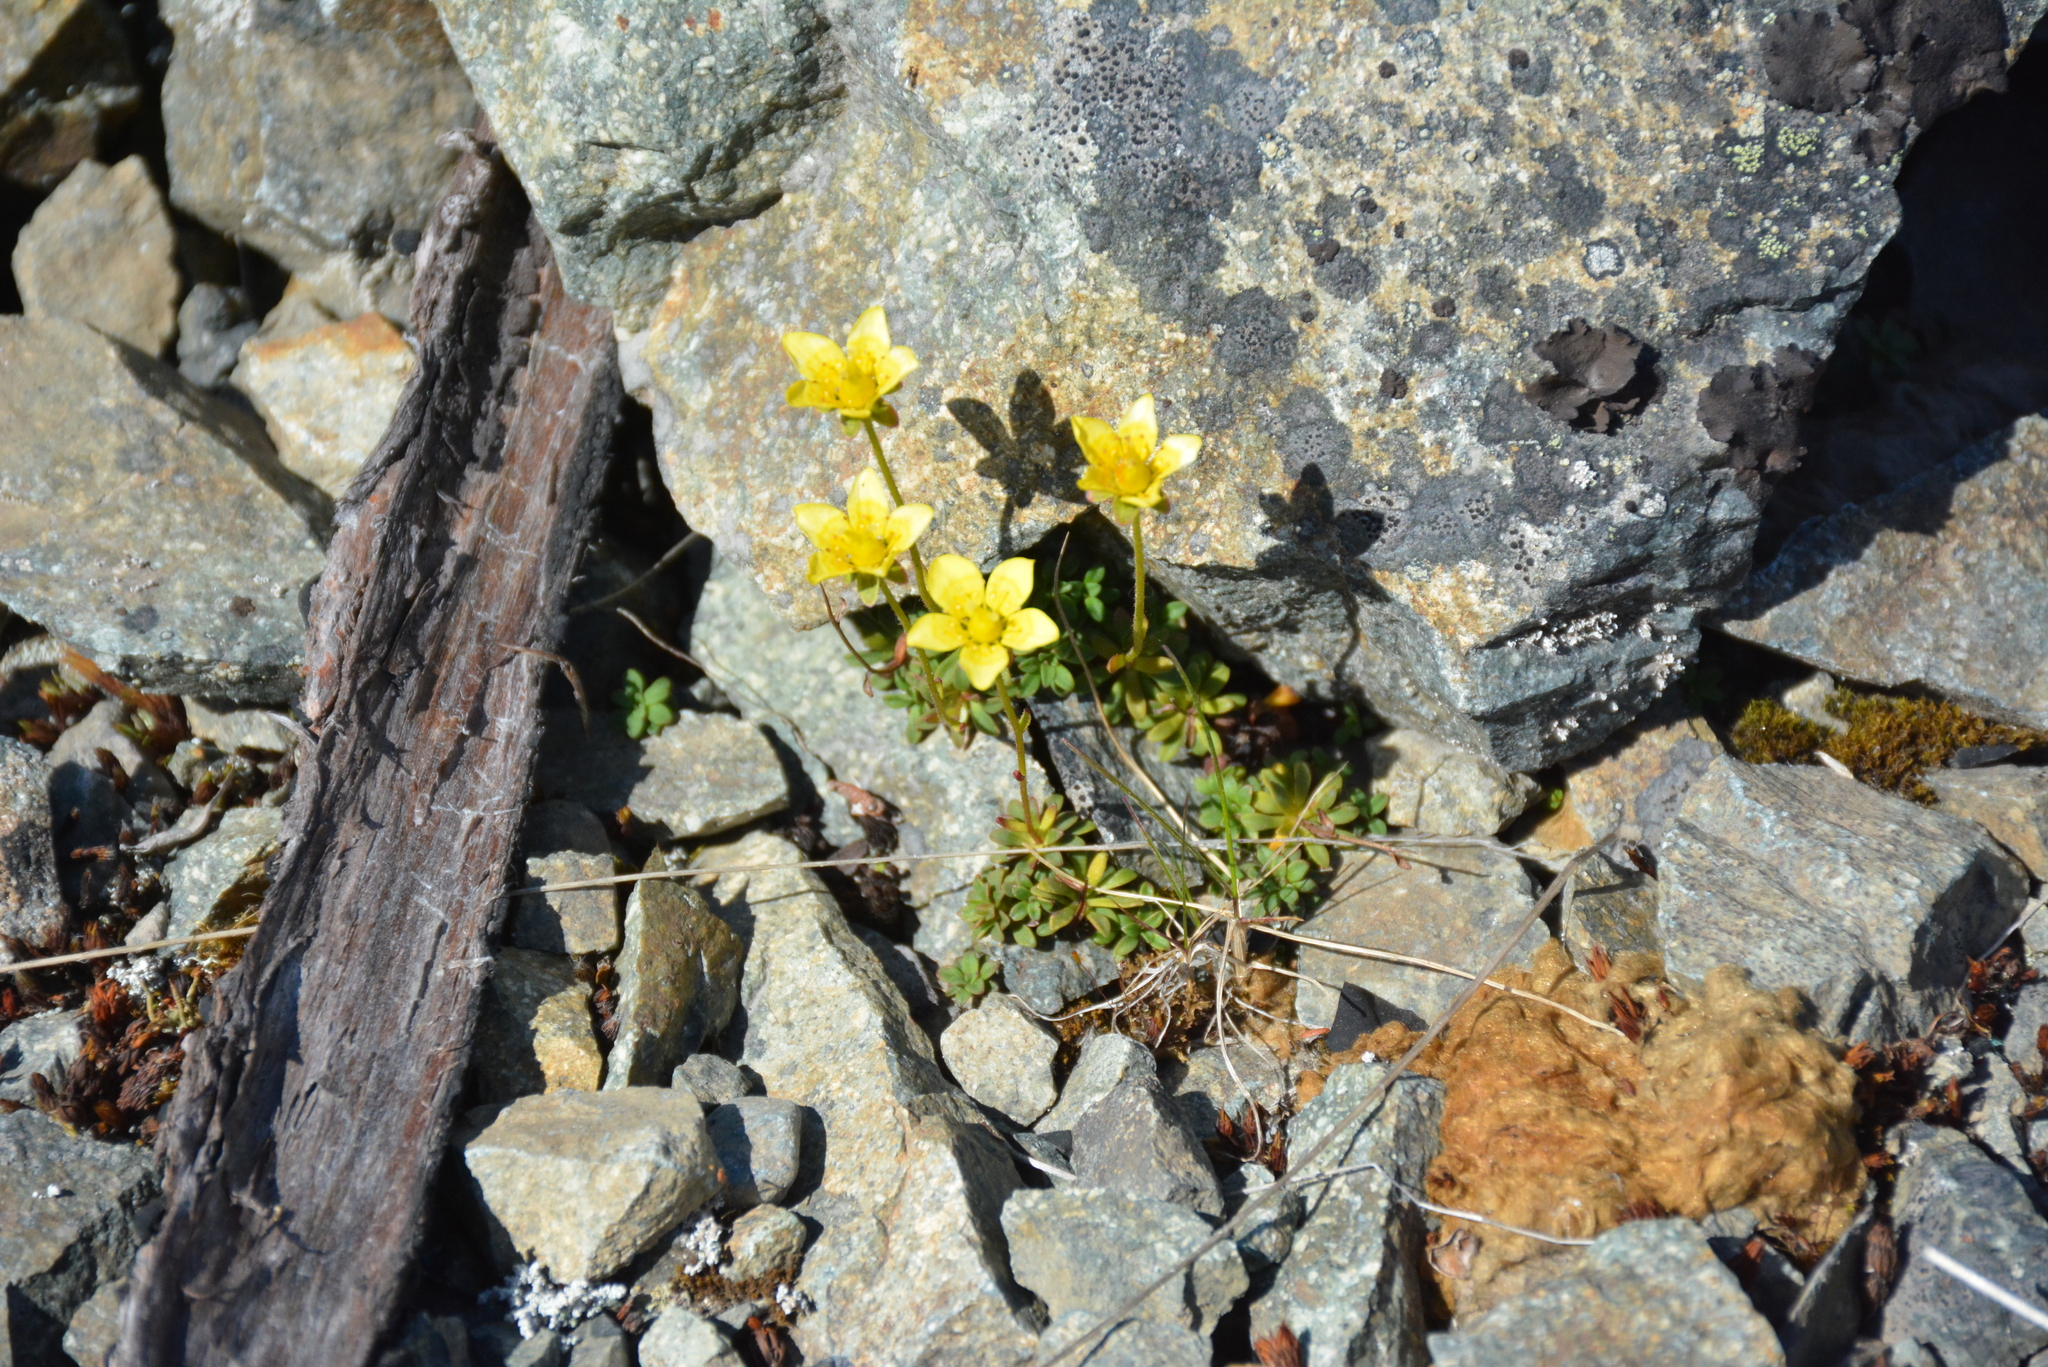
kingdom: Plantae
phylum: Tracheophyta
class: Magnoliopsida
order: Saxifragales
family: Saxifragaceae
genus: Saxifraga
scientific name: Saxifraga serpyllifolia
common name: Thyme-leaved saxifrage
